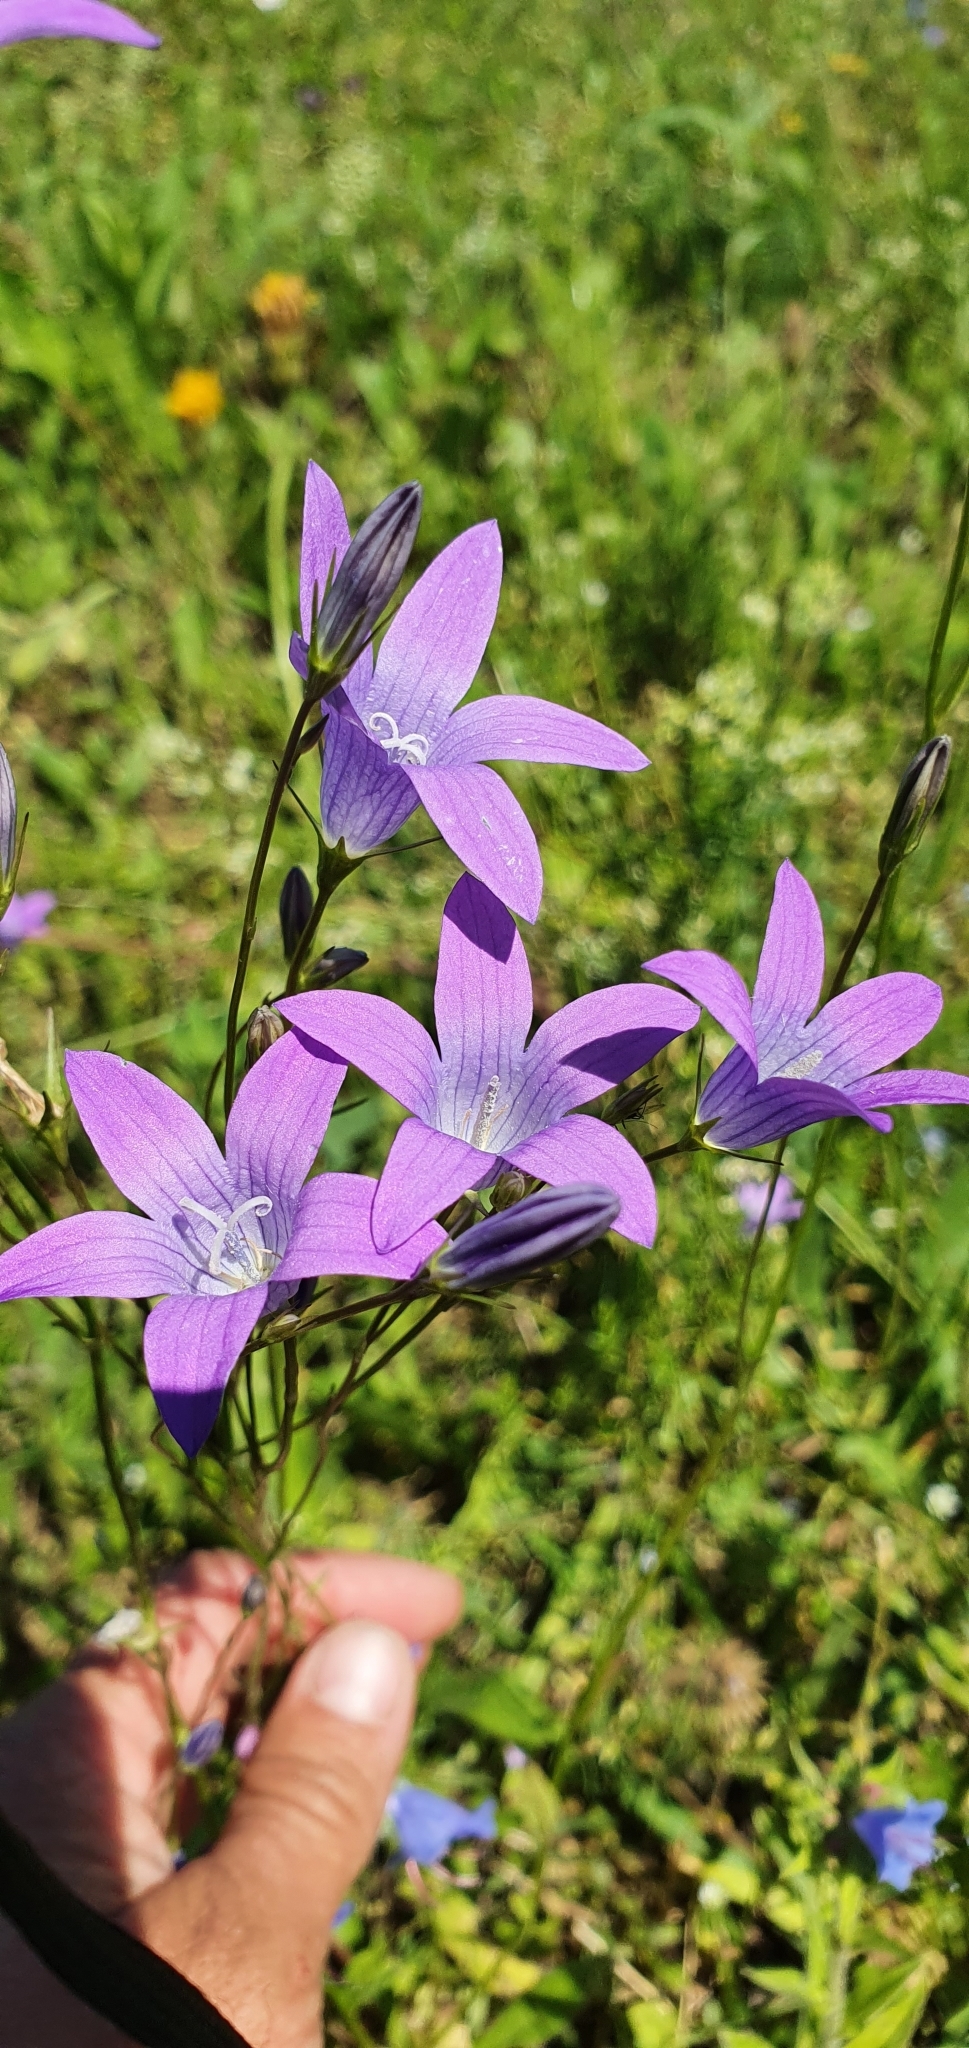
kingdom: Plantae
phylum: Tracheophyta
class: Magnoliopsida
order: Asterales
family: Campanulaceae
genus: Campanula
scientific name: Campanula patula
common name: Spreading bellflower
